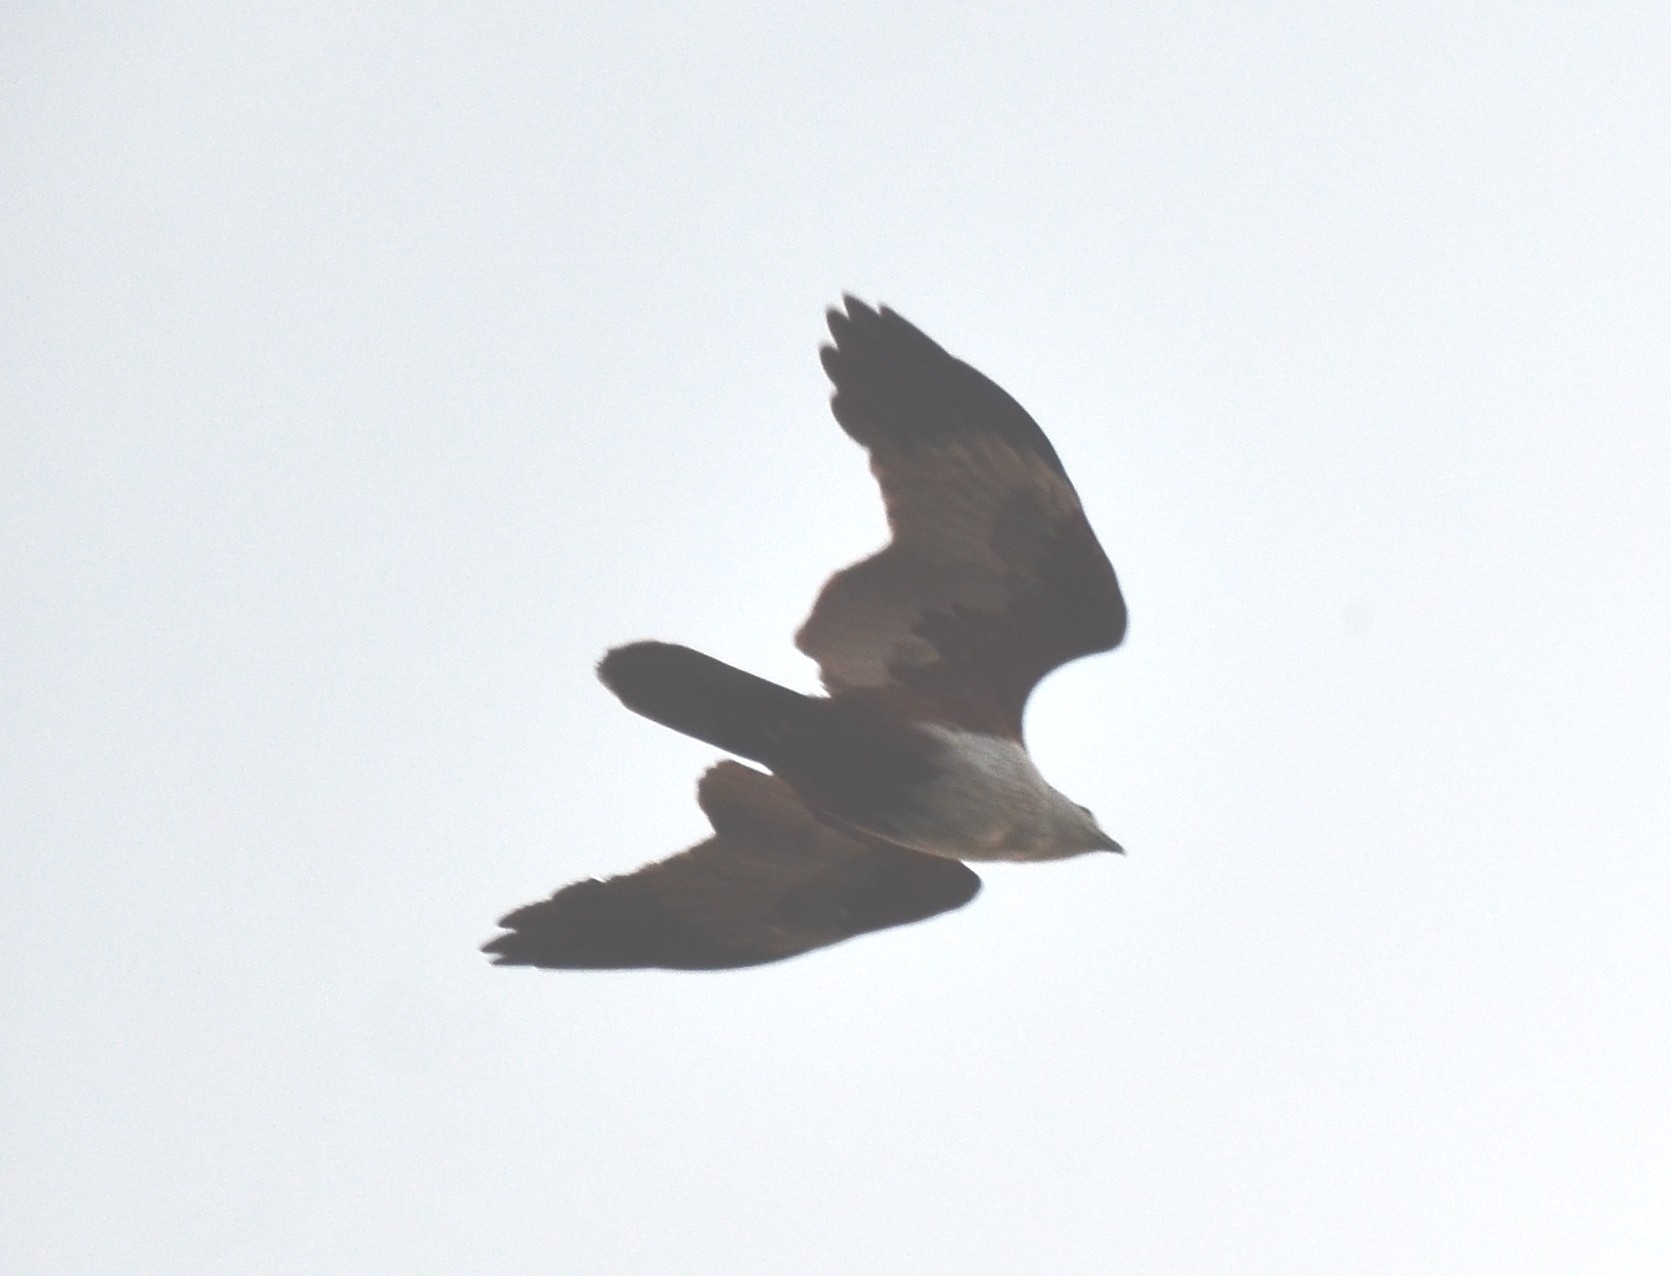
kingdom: Animalia
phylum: Chordata
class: Aves
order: Accipitriformes
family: Accipitridae
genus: Haliastur
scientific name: Haliastur indus
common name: Brahminy kite
